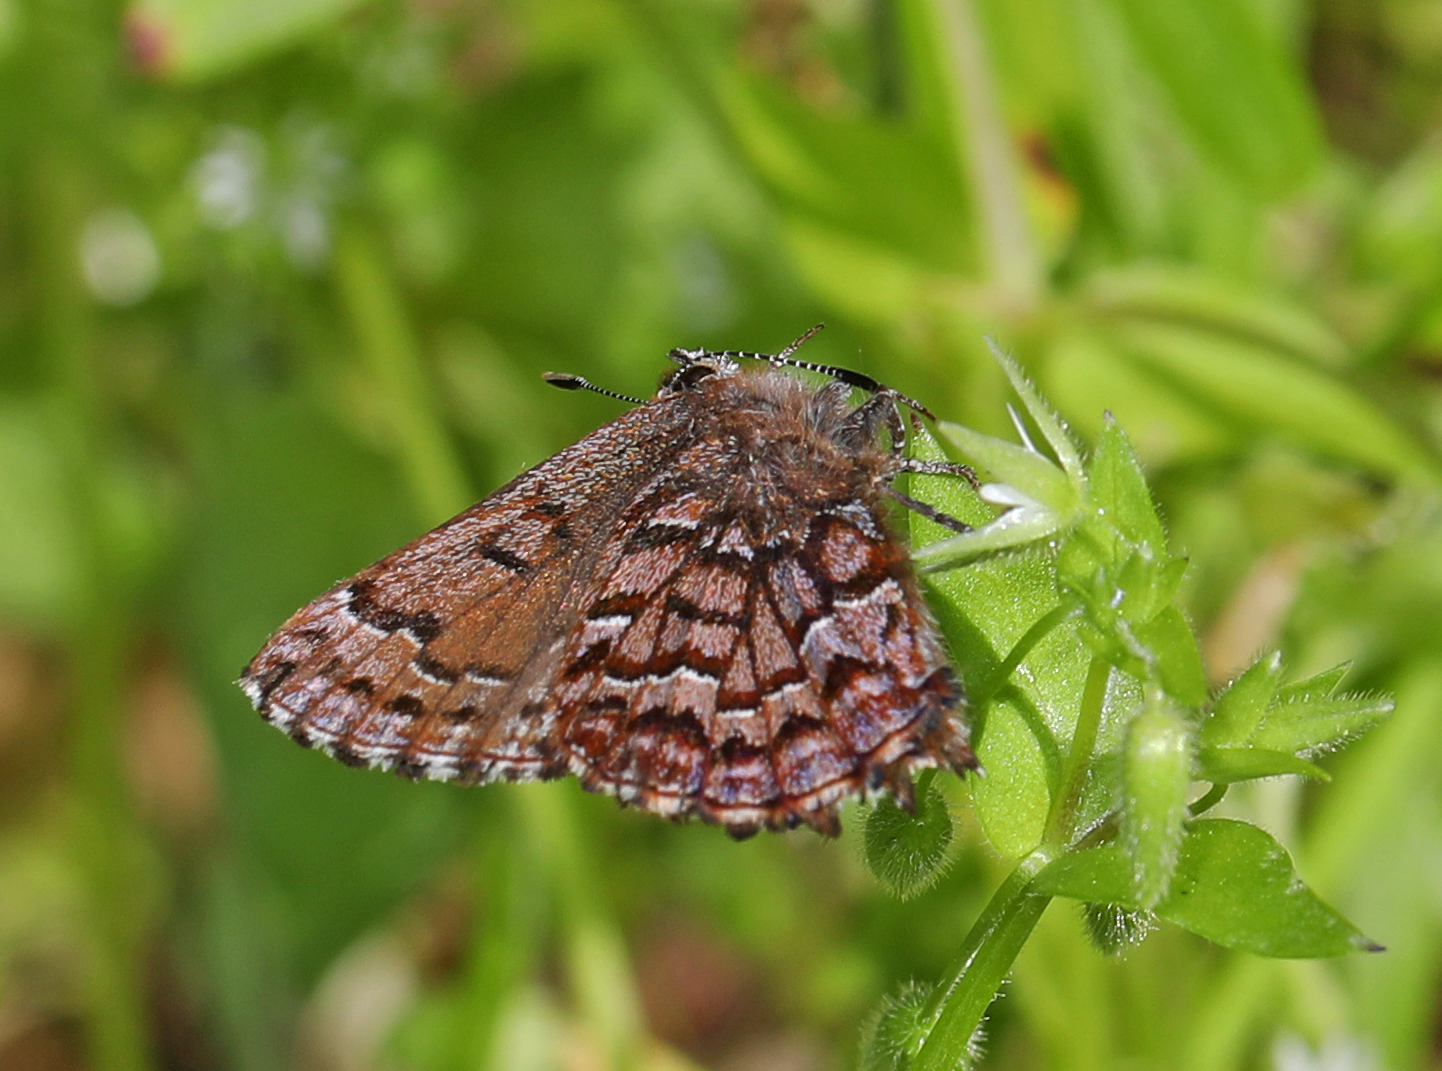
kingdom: Animalia
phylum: Arthropoda
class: Insecta
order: Lepidoptera
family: Lycaenidae
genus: Incisalia
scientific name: Incisalia niphon
